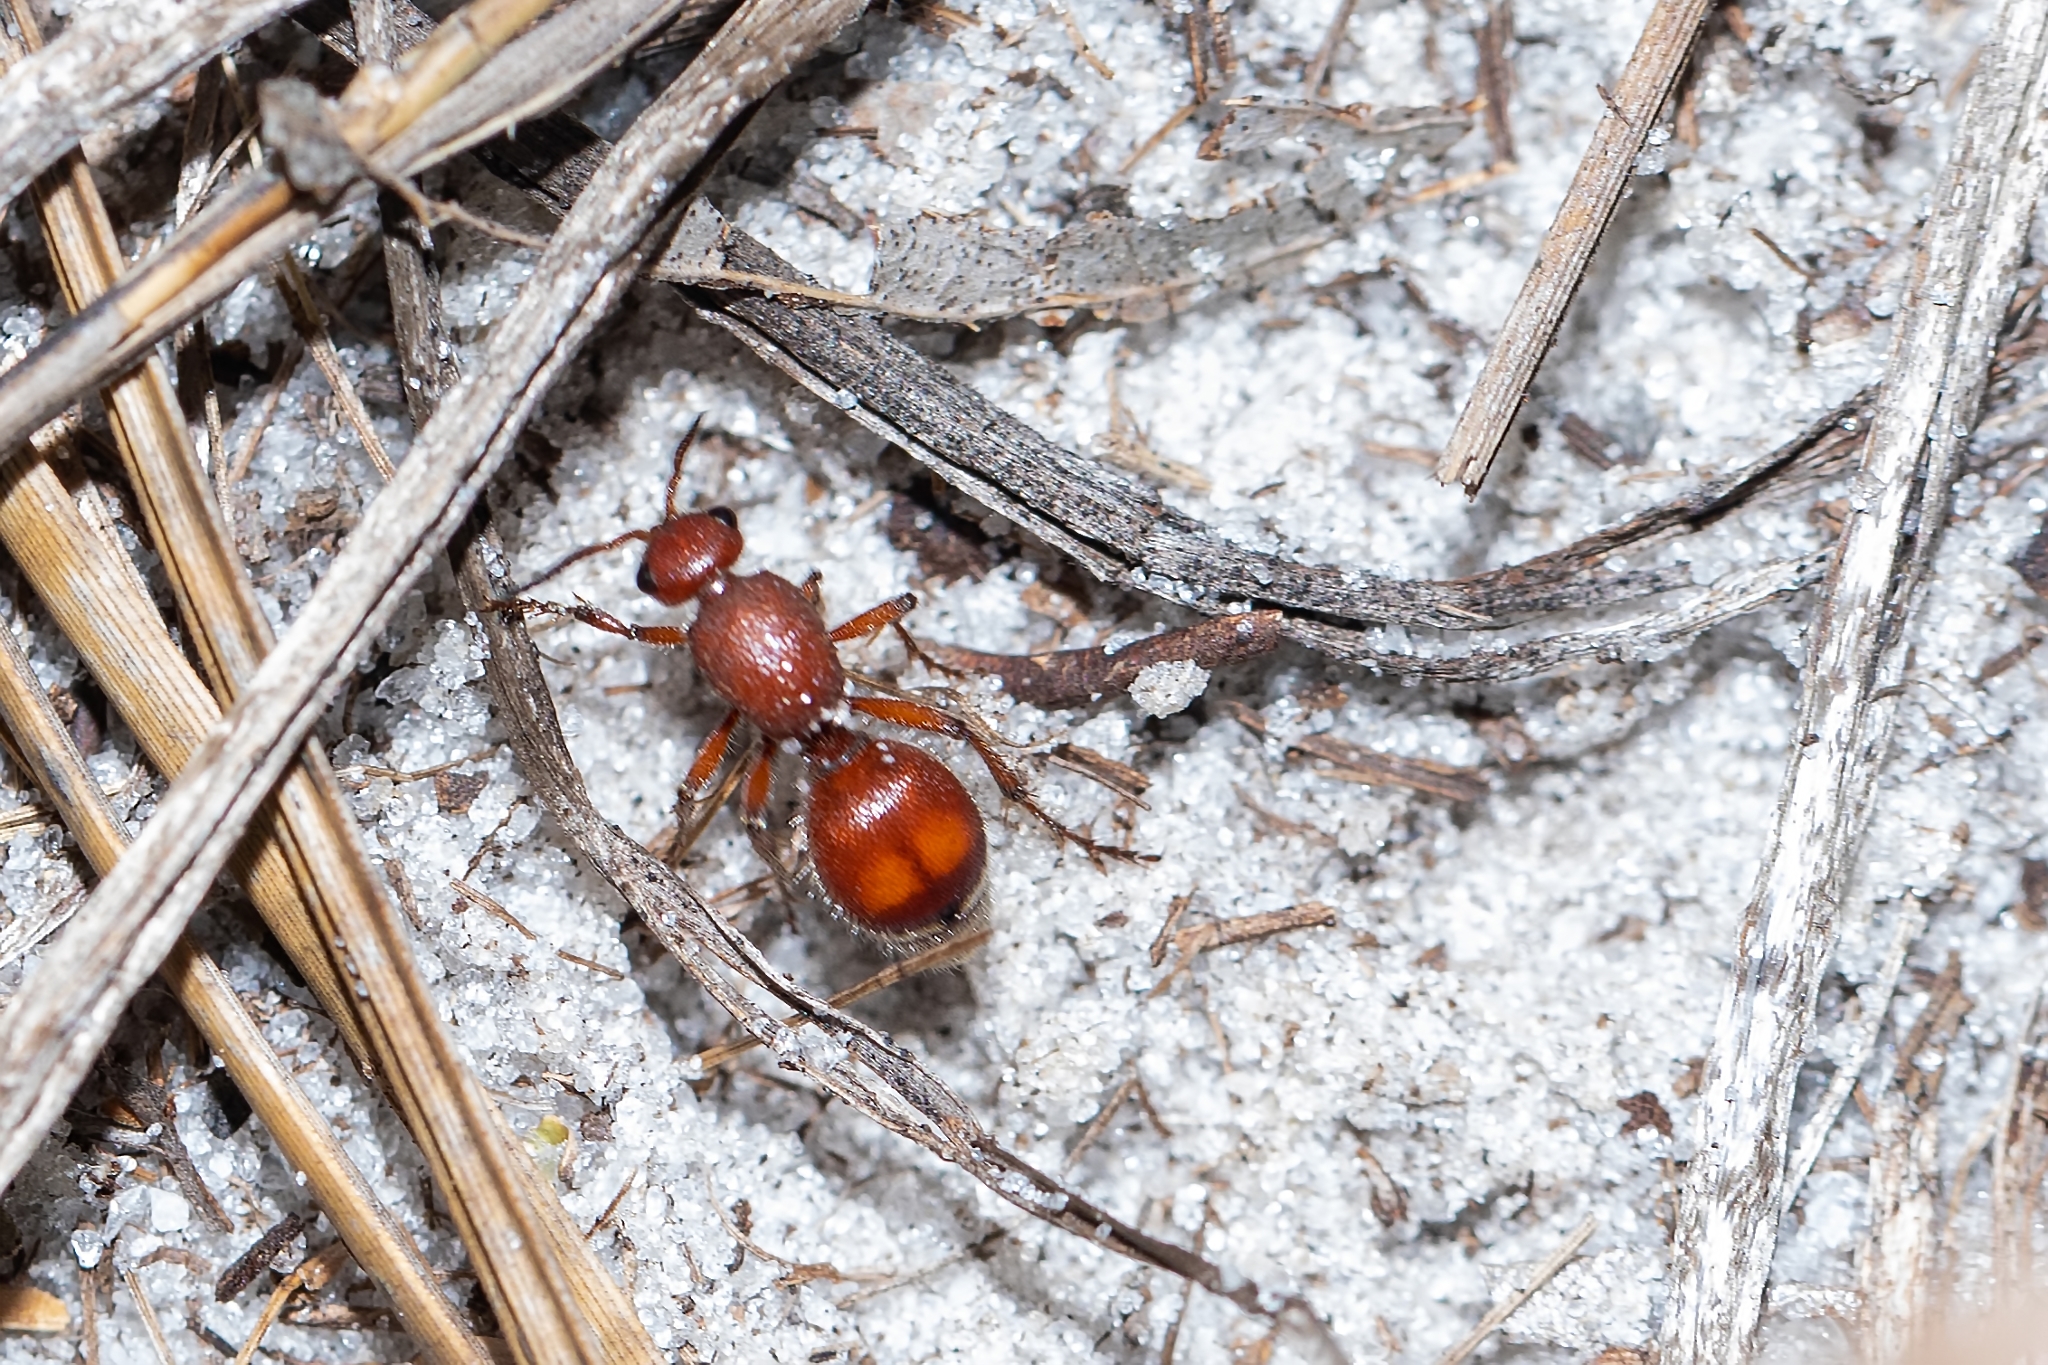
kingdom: Animalia
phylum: Arthropoda
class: Insecta
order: Hymenoptera
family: Mutillidae
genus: Pseudomethoca
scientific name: Pseudomethoca sanbornii
